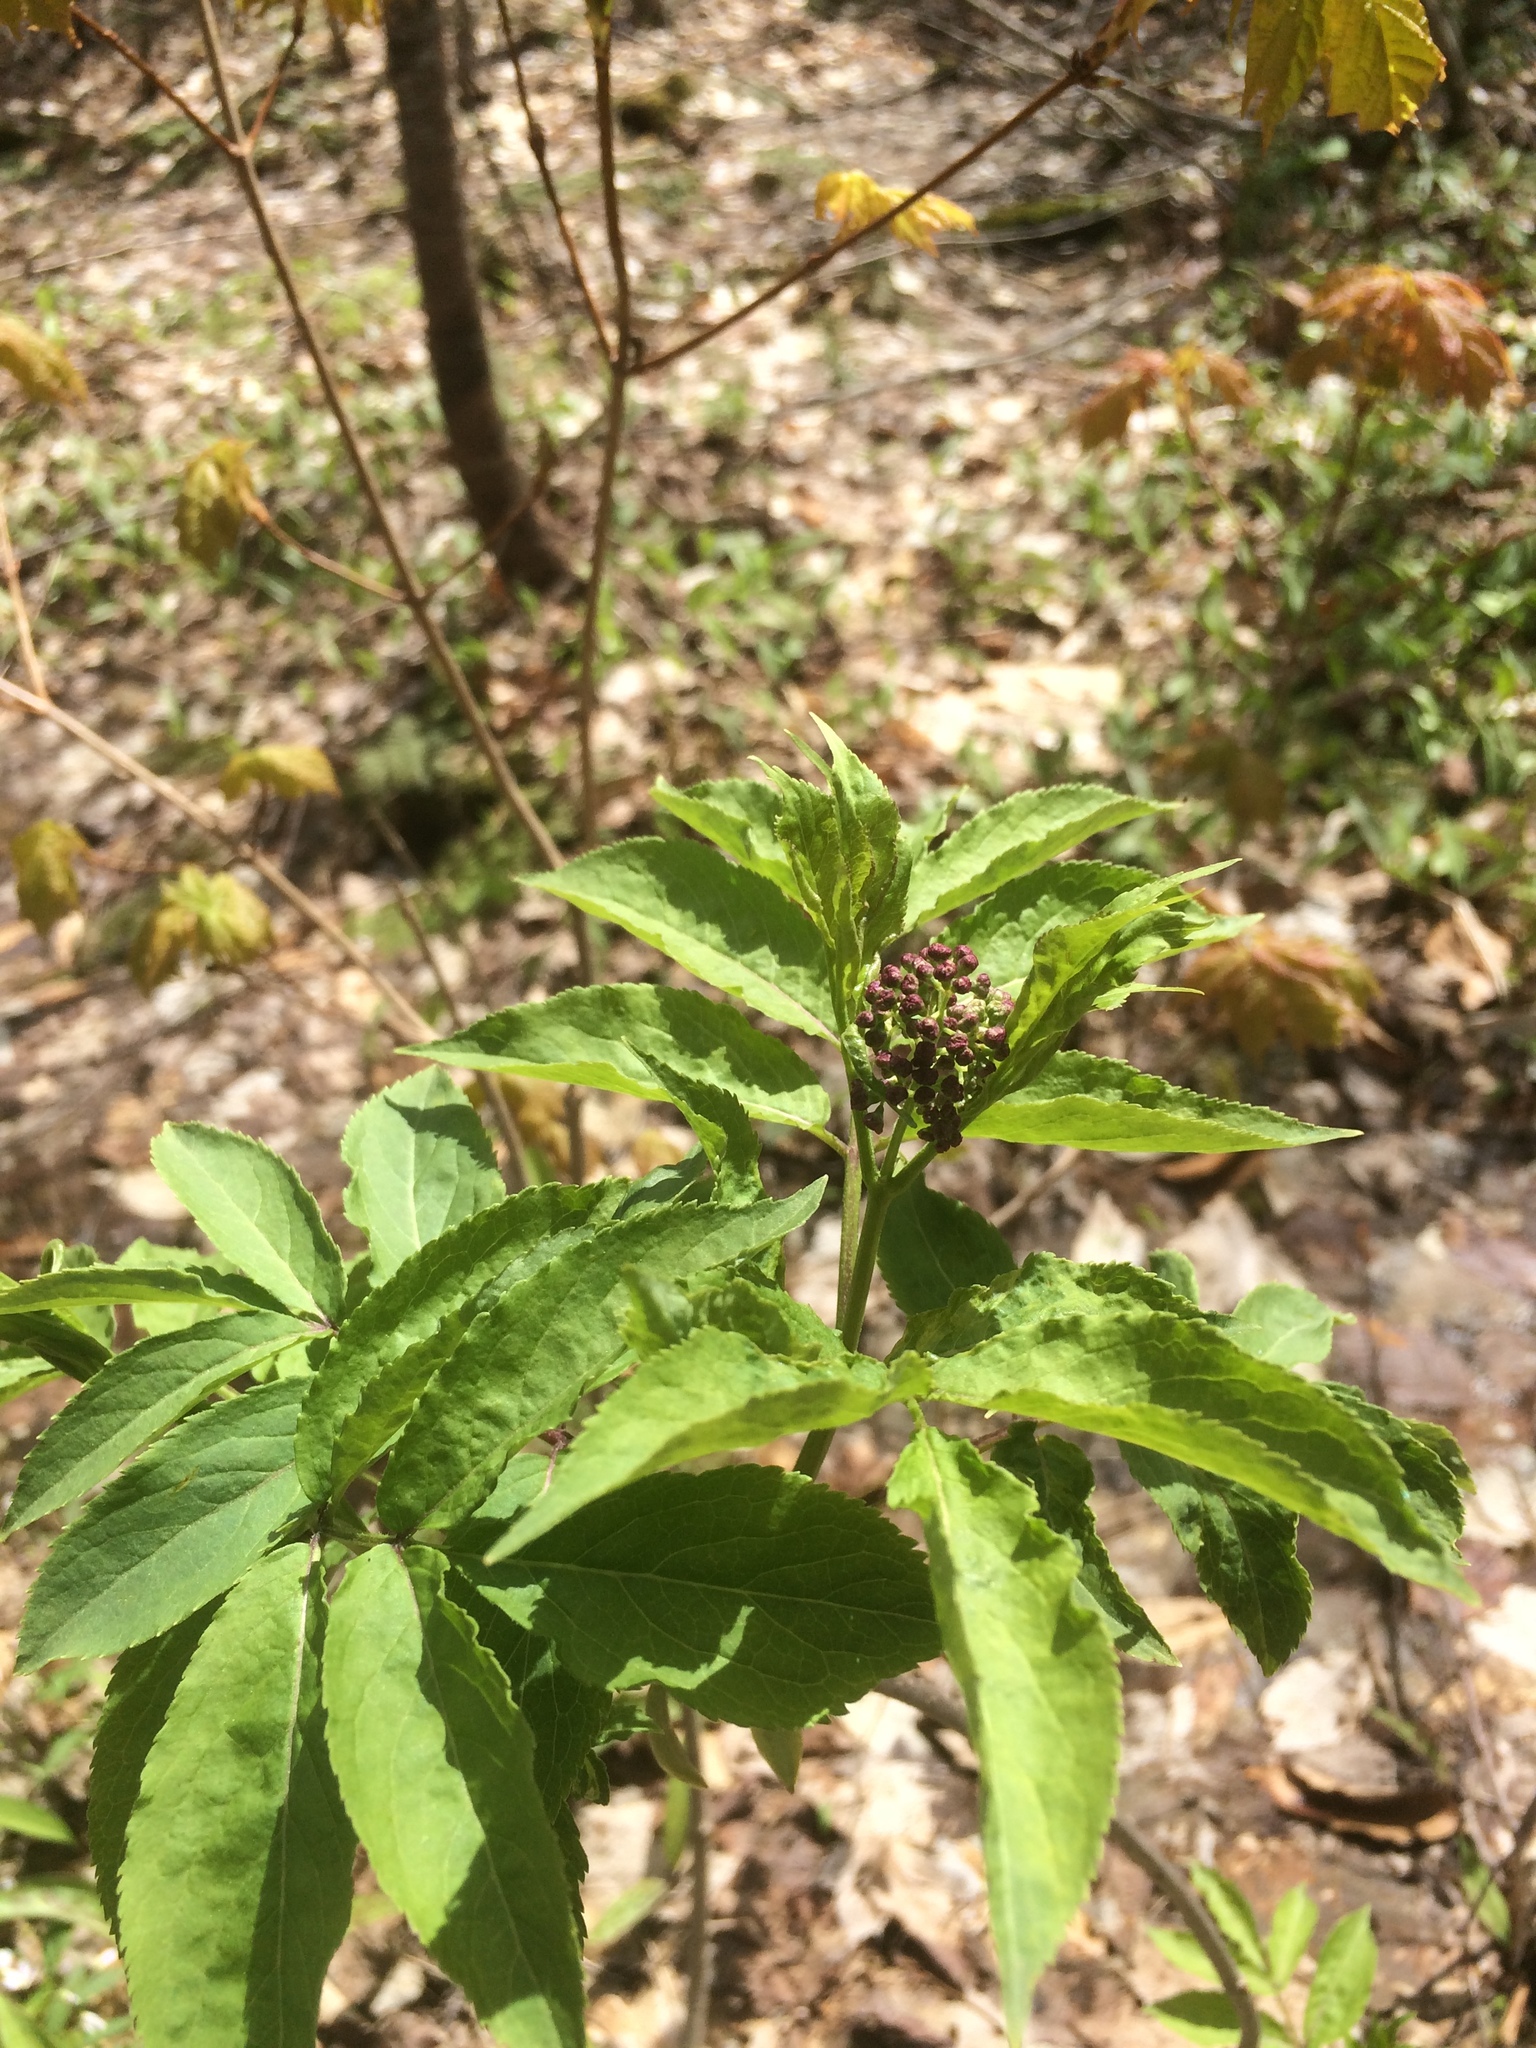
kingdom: Plantae
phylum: Tracheophyta
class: Magnoliopsida
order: Dipsacales
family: Viburnaceae
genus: Sambucus
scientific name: Sambucus racemosa
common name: Red-berried elder
